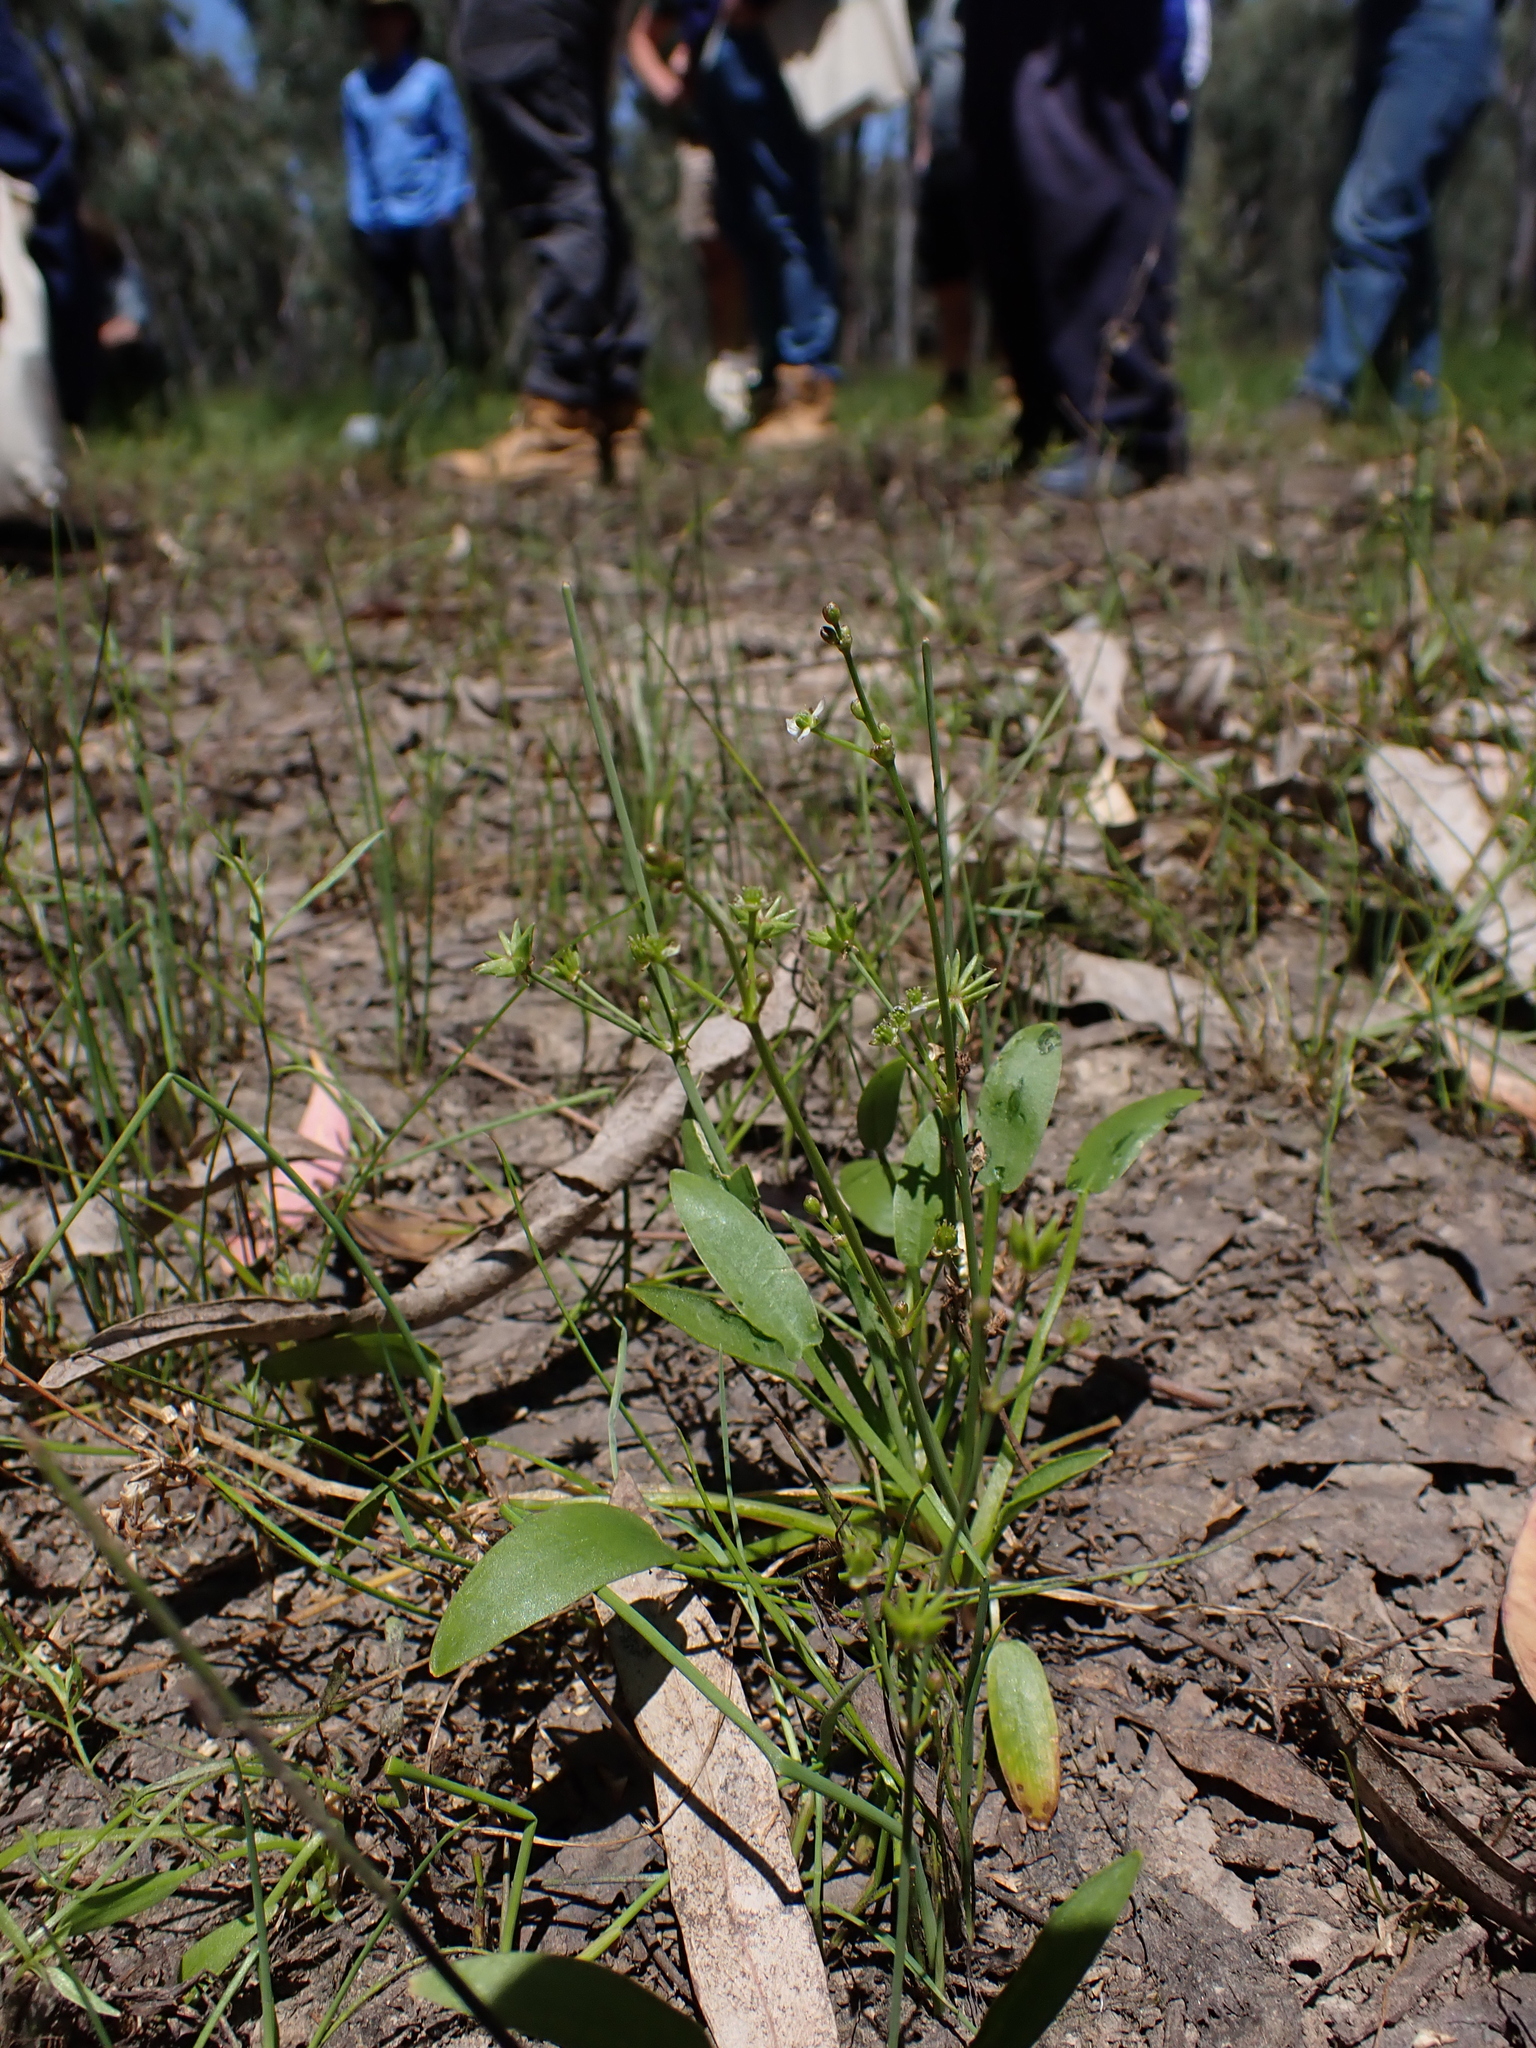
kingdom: Plantae
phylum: Tracheophyta
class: Liliopsida
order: Alismatales
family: Alismataceae
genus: Damasonium
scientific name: Damasonium minus
